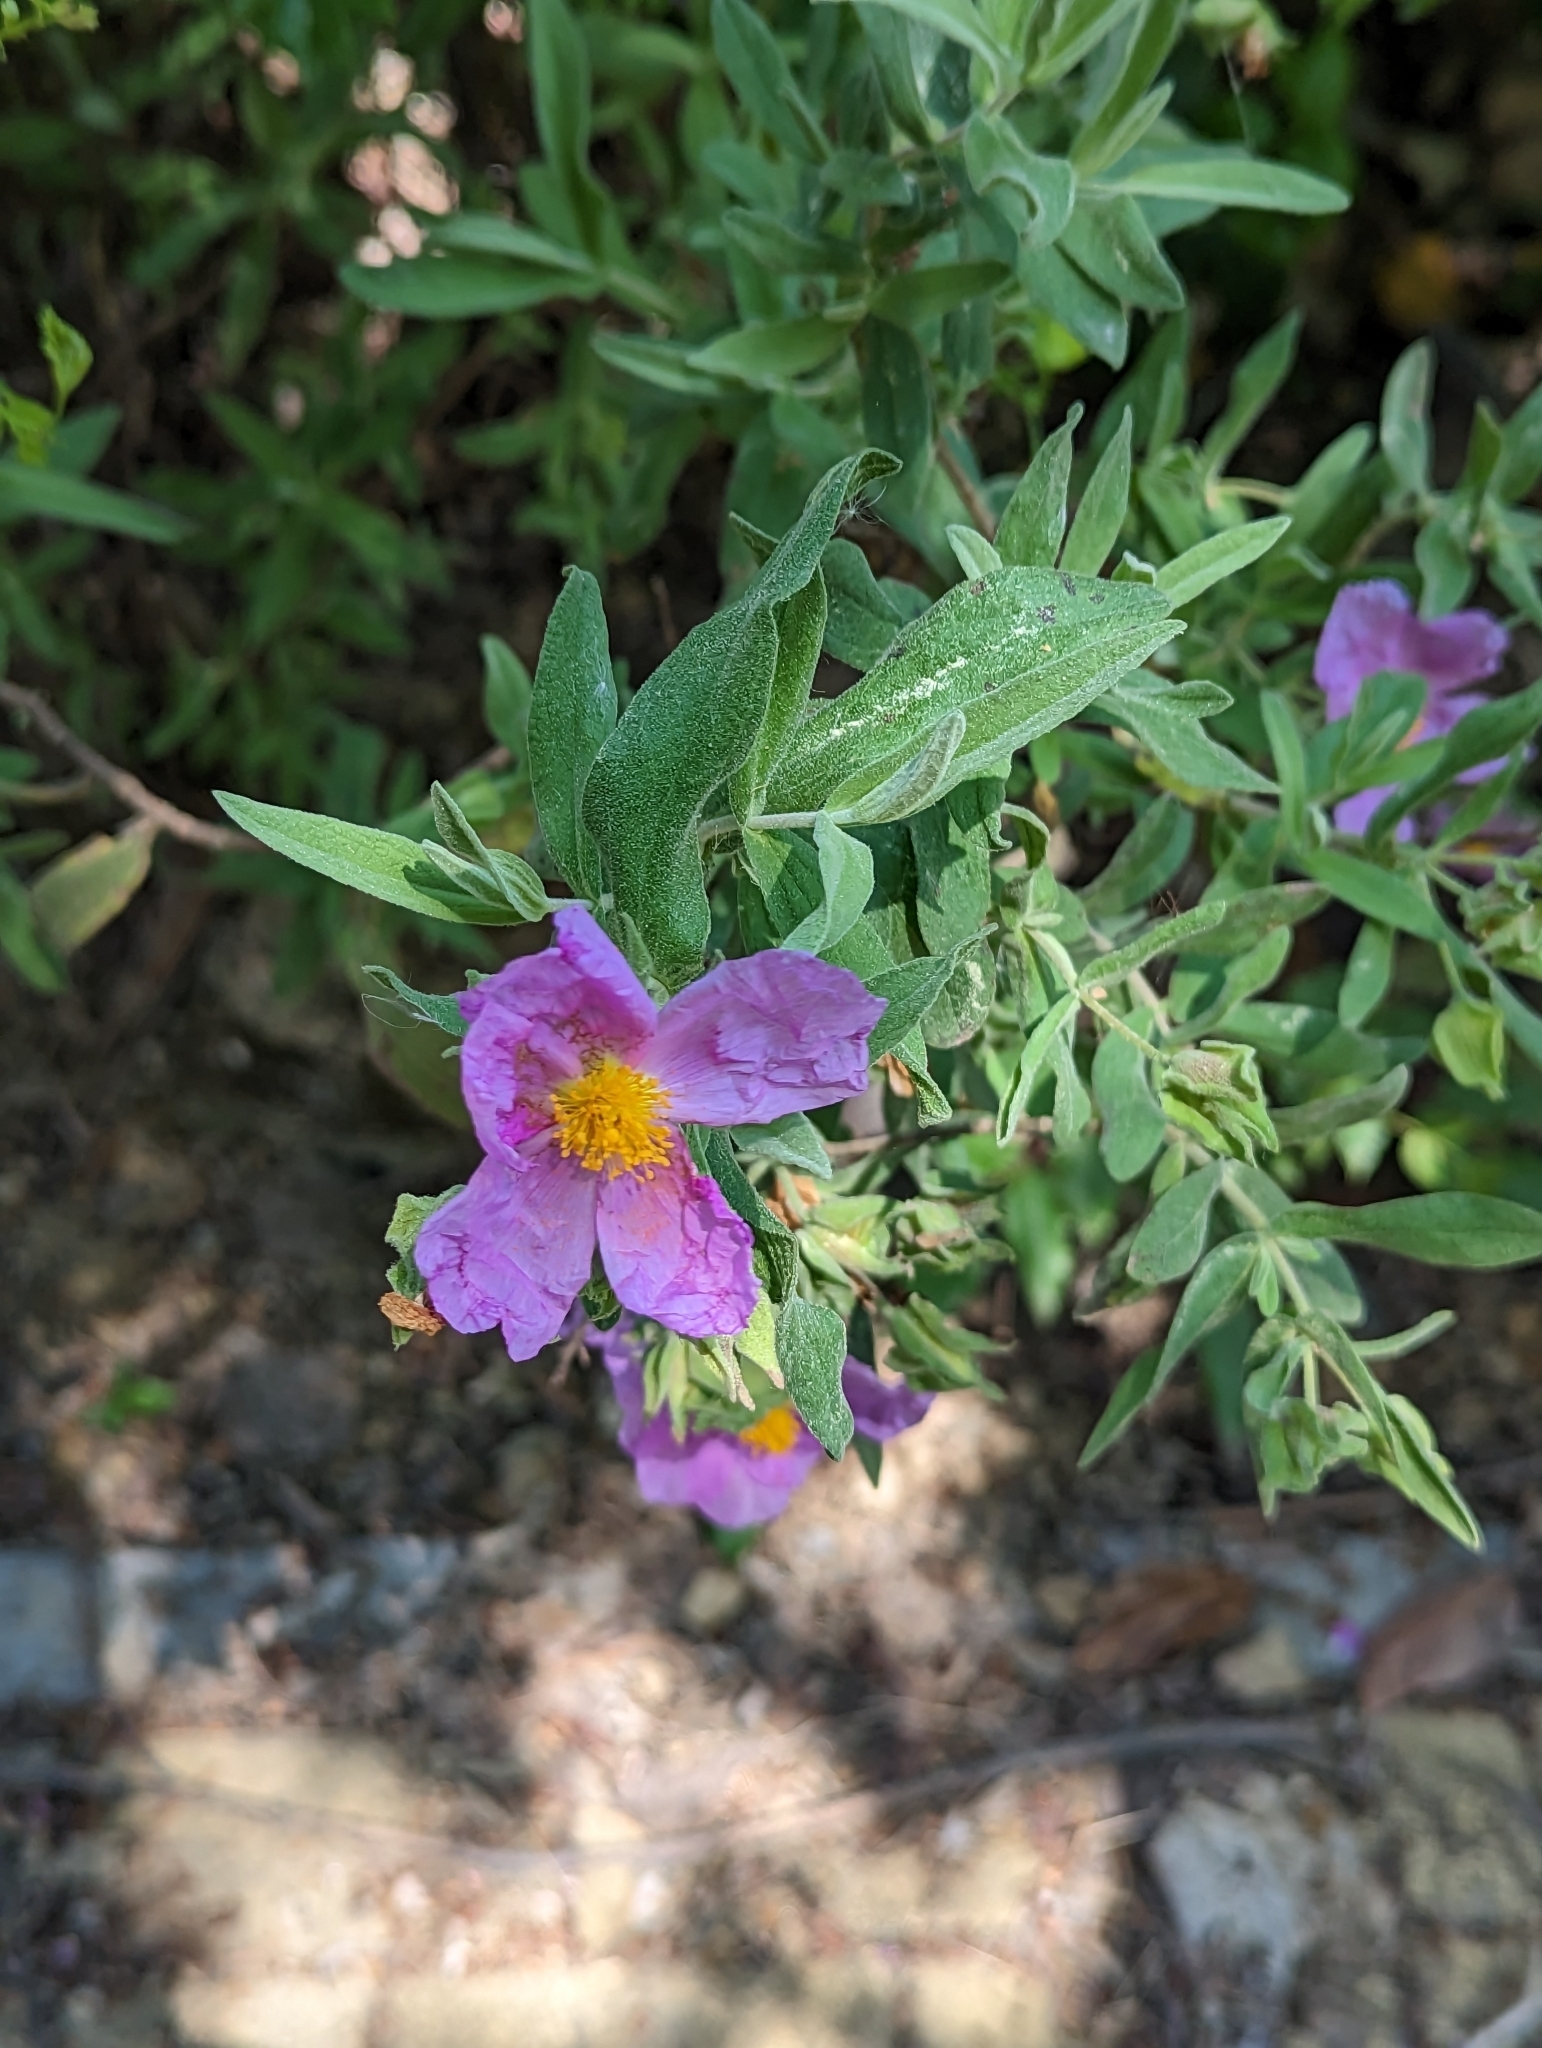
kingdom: Plantae
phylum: Tracheophyta
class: Magnoliopsida
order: Malvales
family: Cistaceae
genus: Cistus
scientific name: Cistus albidus
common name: White-leaf rock-rose
